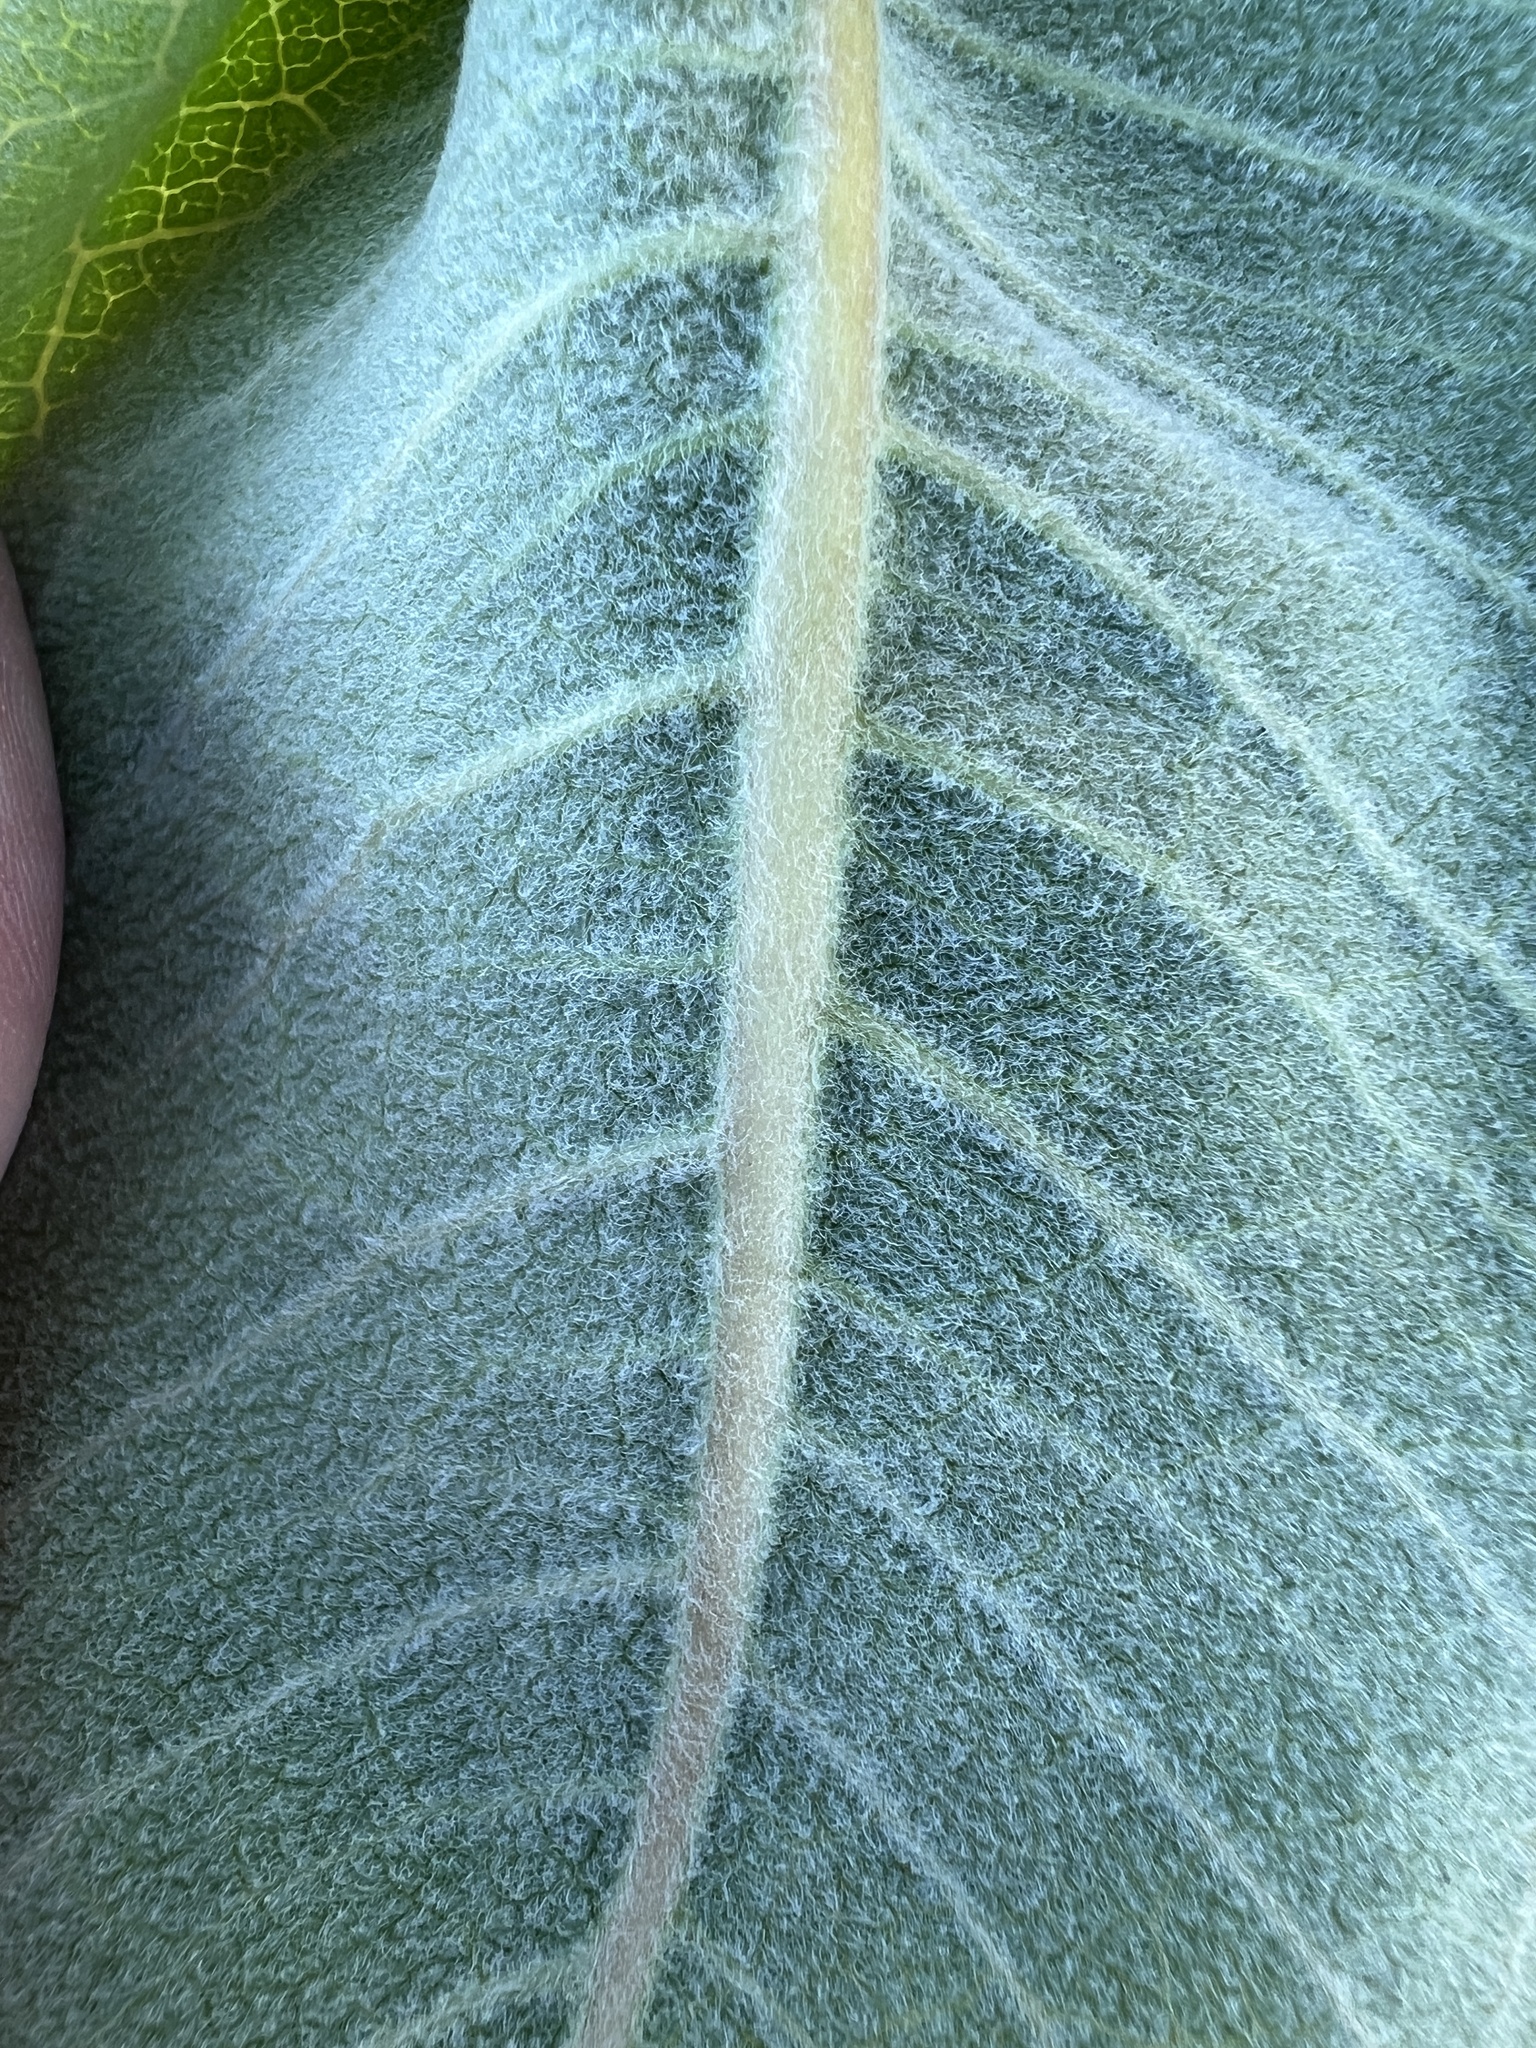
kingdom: Plantae
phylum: Tracheophyta
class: Magnoliopsida
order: Gentianales
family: Apocynaceae
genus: Asclepias
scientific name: Asclepias speciosa
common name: Showy milkweed
